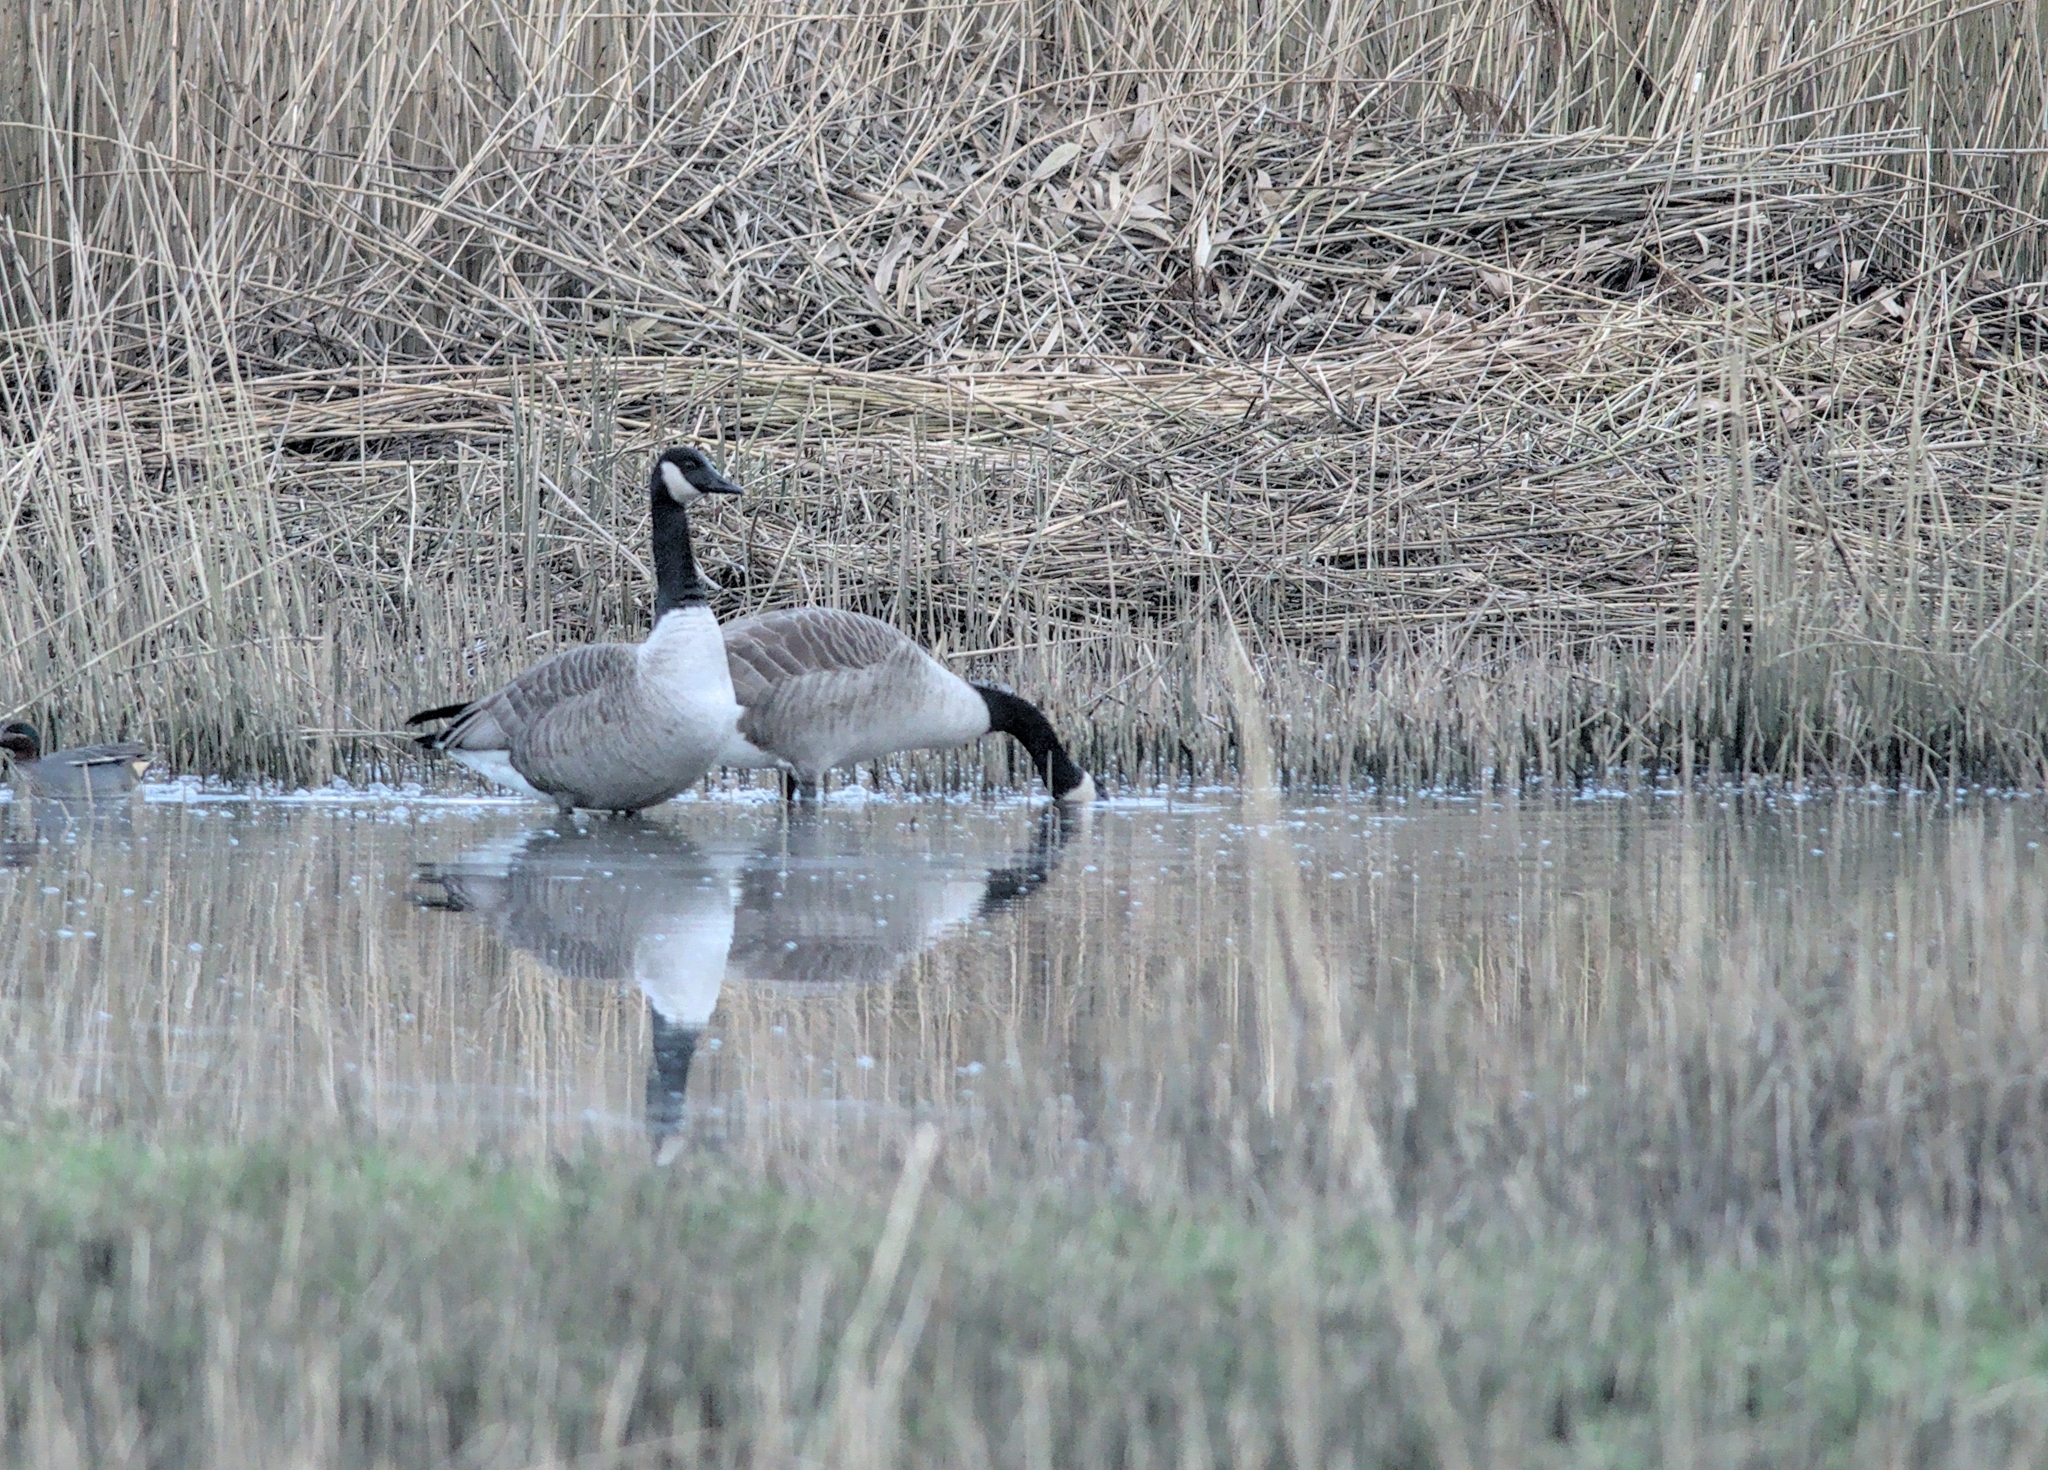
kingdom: Animalia
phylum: Chordata
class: Aves
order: Anseriformes
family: Anatidae
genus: Branta
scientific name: Branta canadensis
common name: Canada goose
